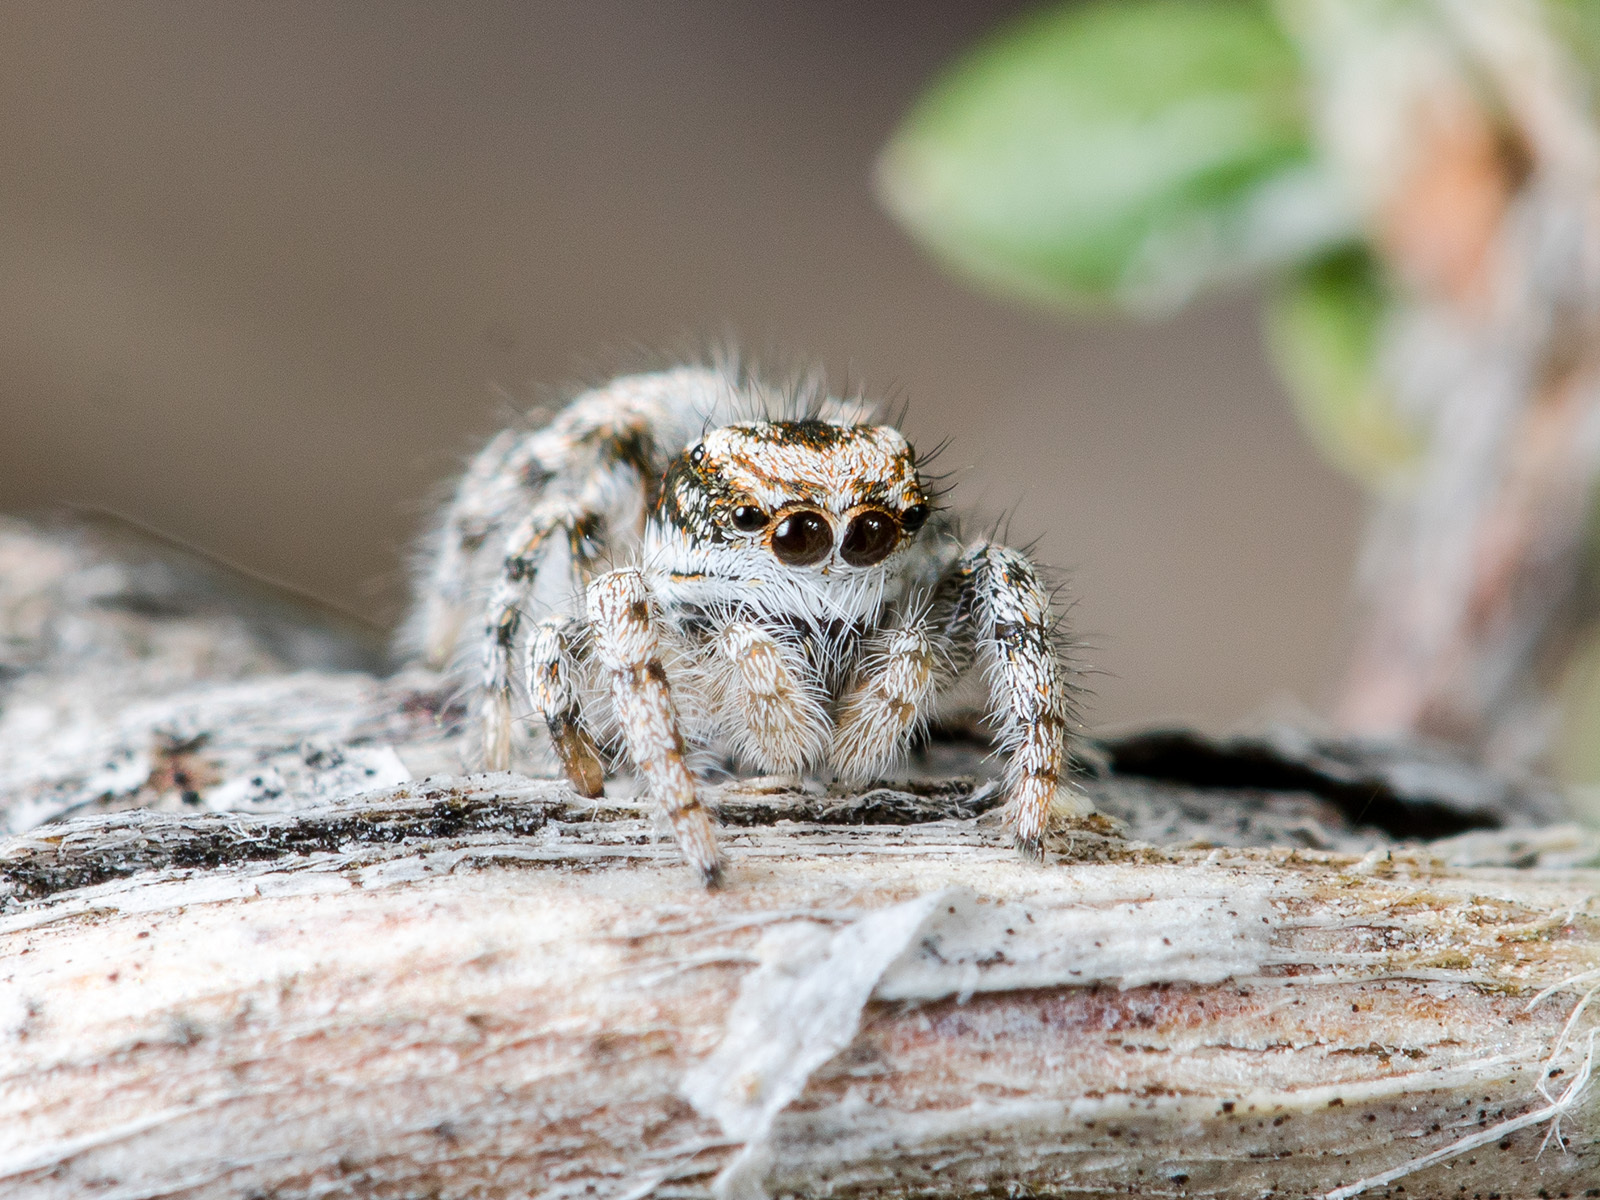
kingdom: Animalia
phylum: Arthropoda
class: Arachnida
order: Araneae
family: Salticidae
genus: Pseudomogrus
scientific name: Pseudomogrus dalaensis
